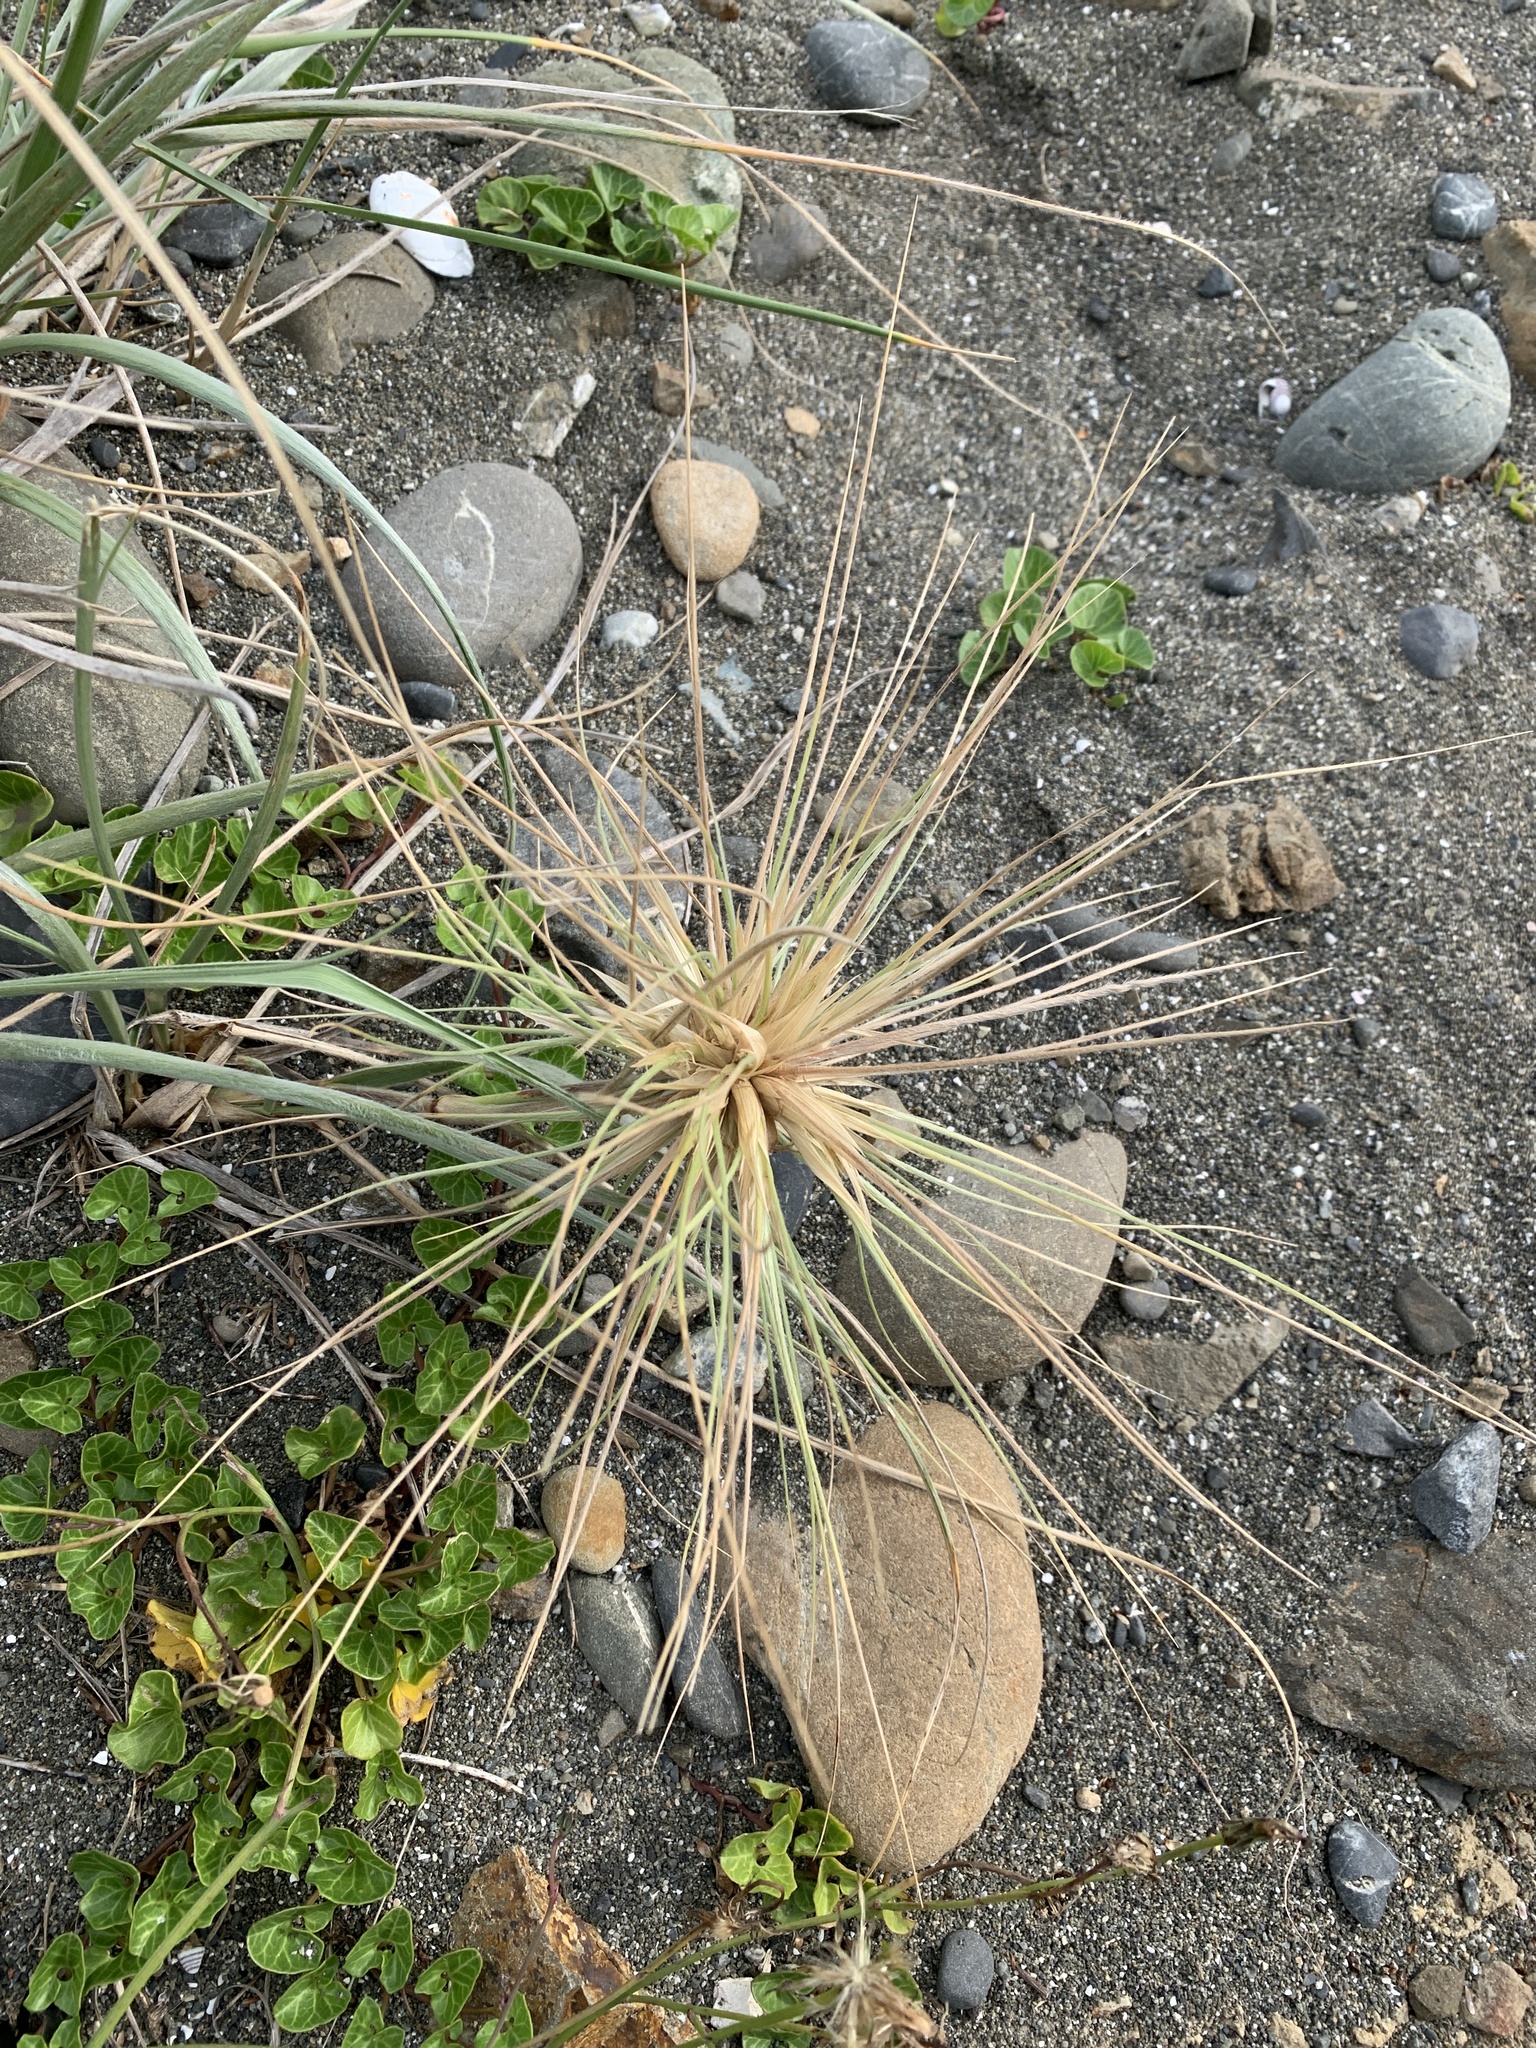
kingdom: Plantae
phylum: Tracheophyta
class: Liliopsida
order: Poales
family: Poaceae
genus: Spinifex
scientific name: Spinifex sericeus
